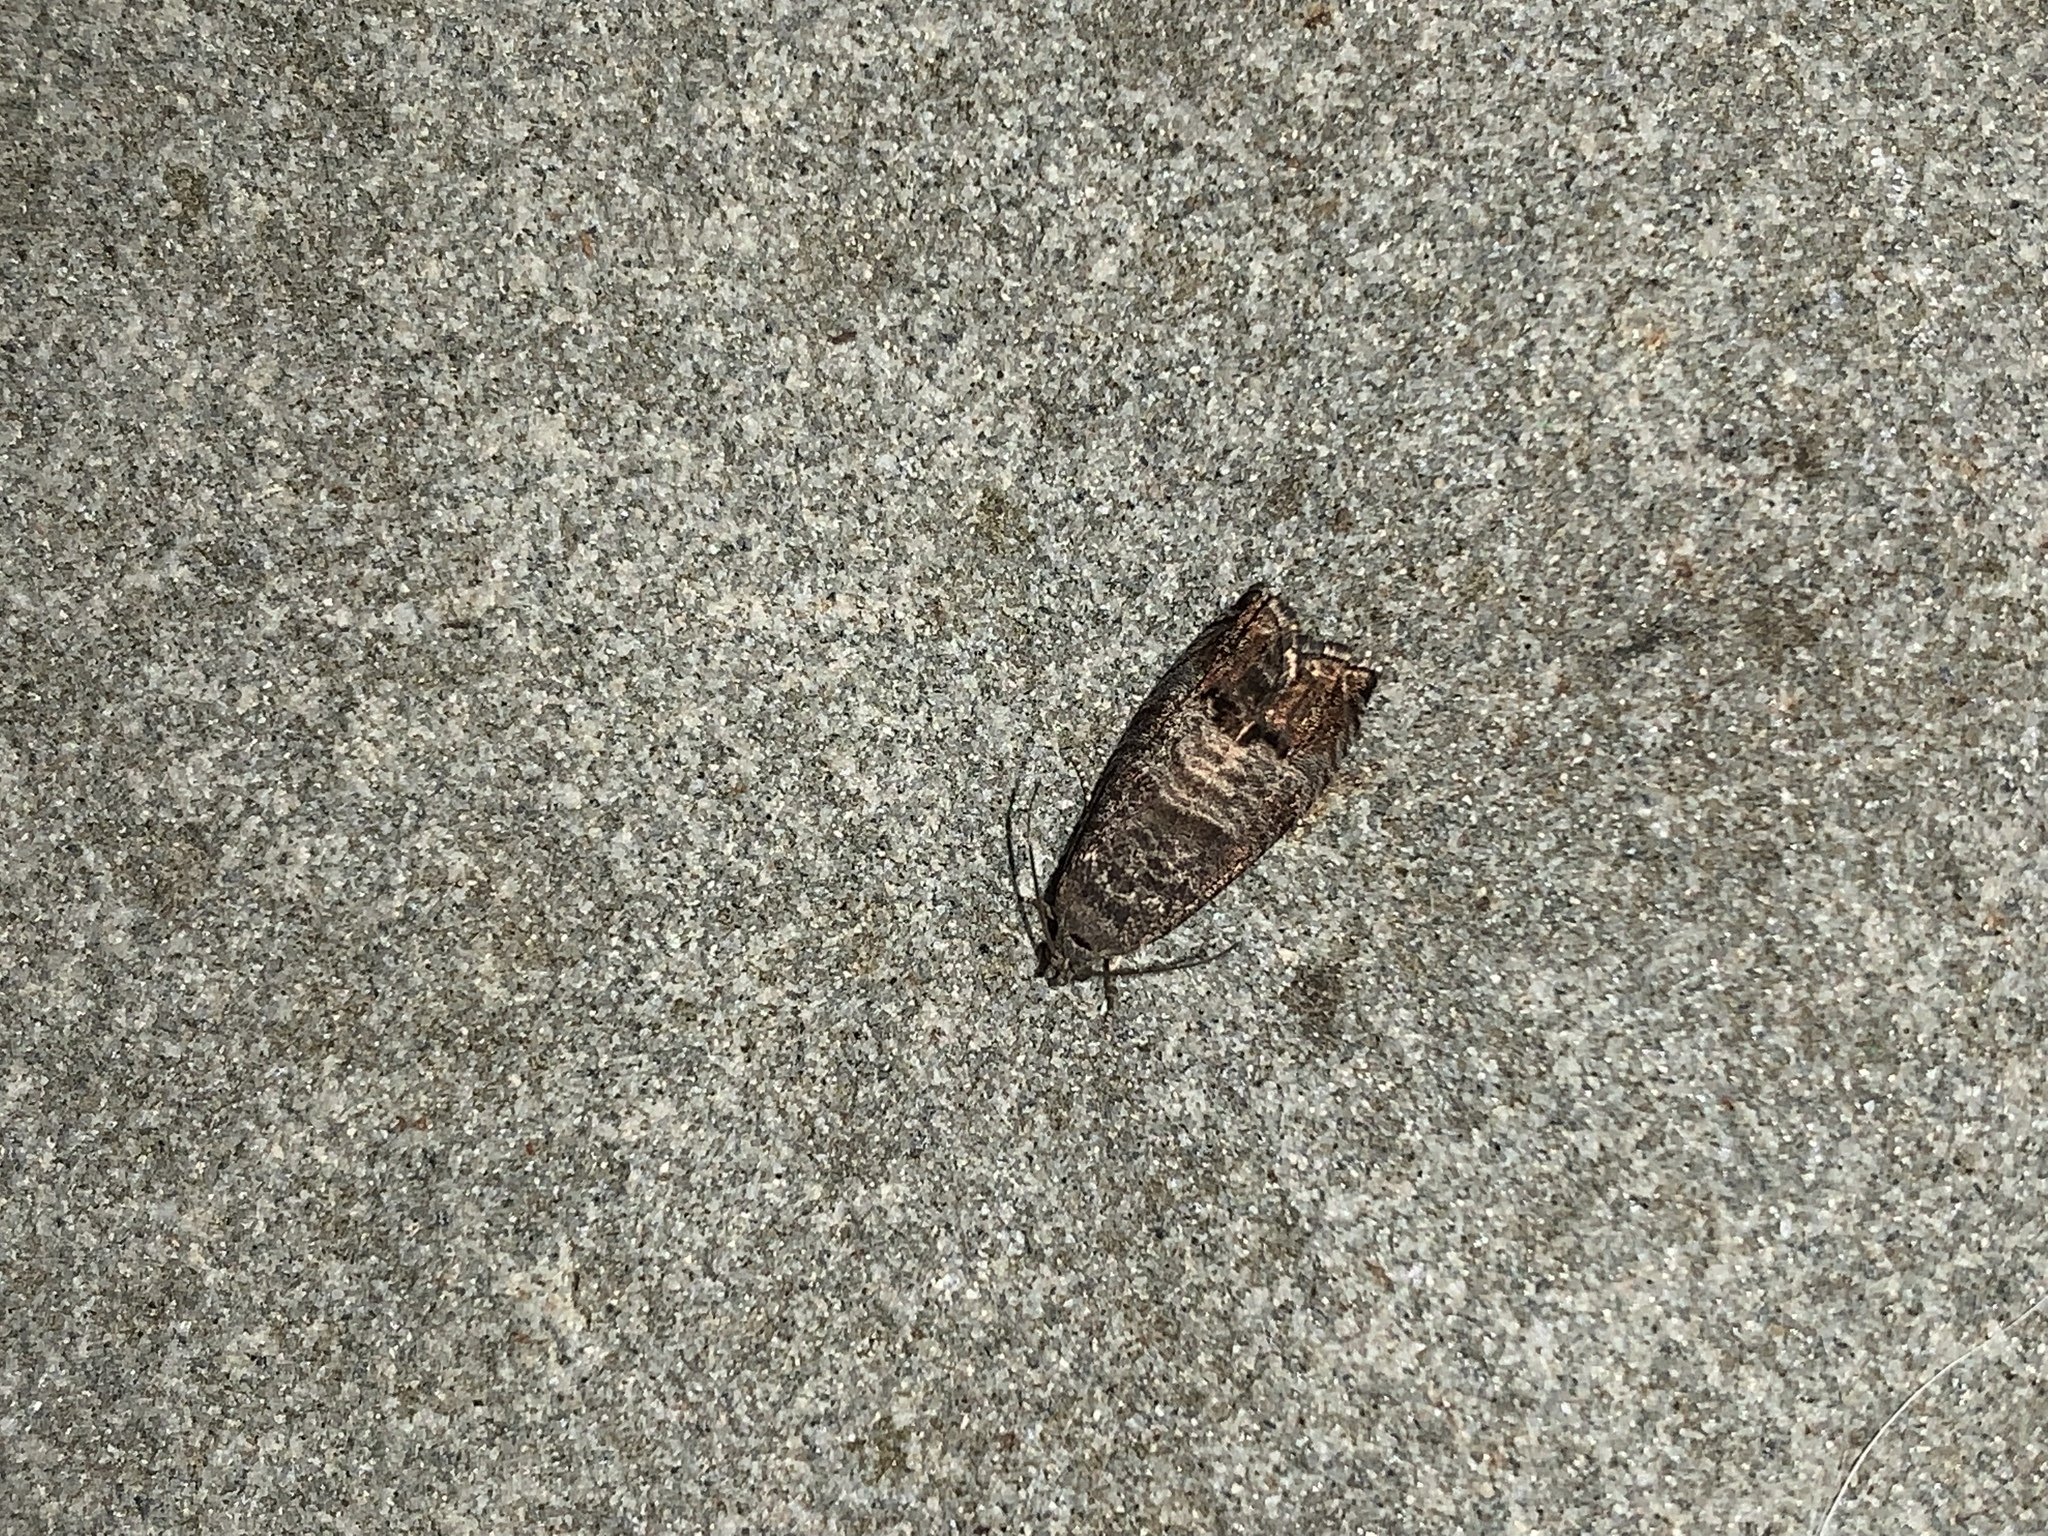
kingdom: Animalia
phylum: Arthropoda
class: Insecta
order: Lepidoptera
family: Tortricidae
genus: Cydia
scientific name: Cydia pomonella
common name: Codling moth
